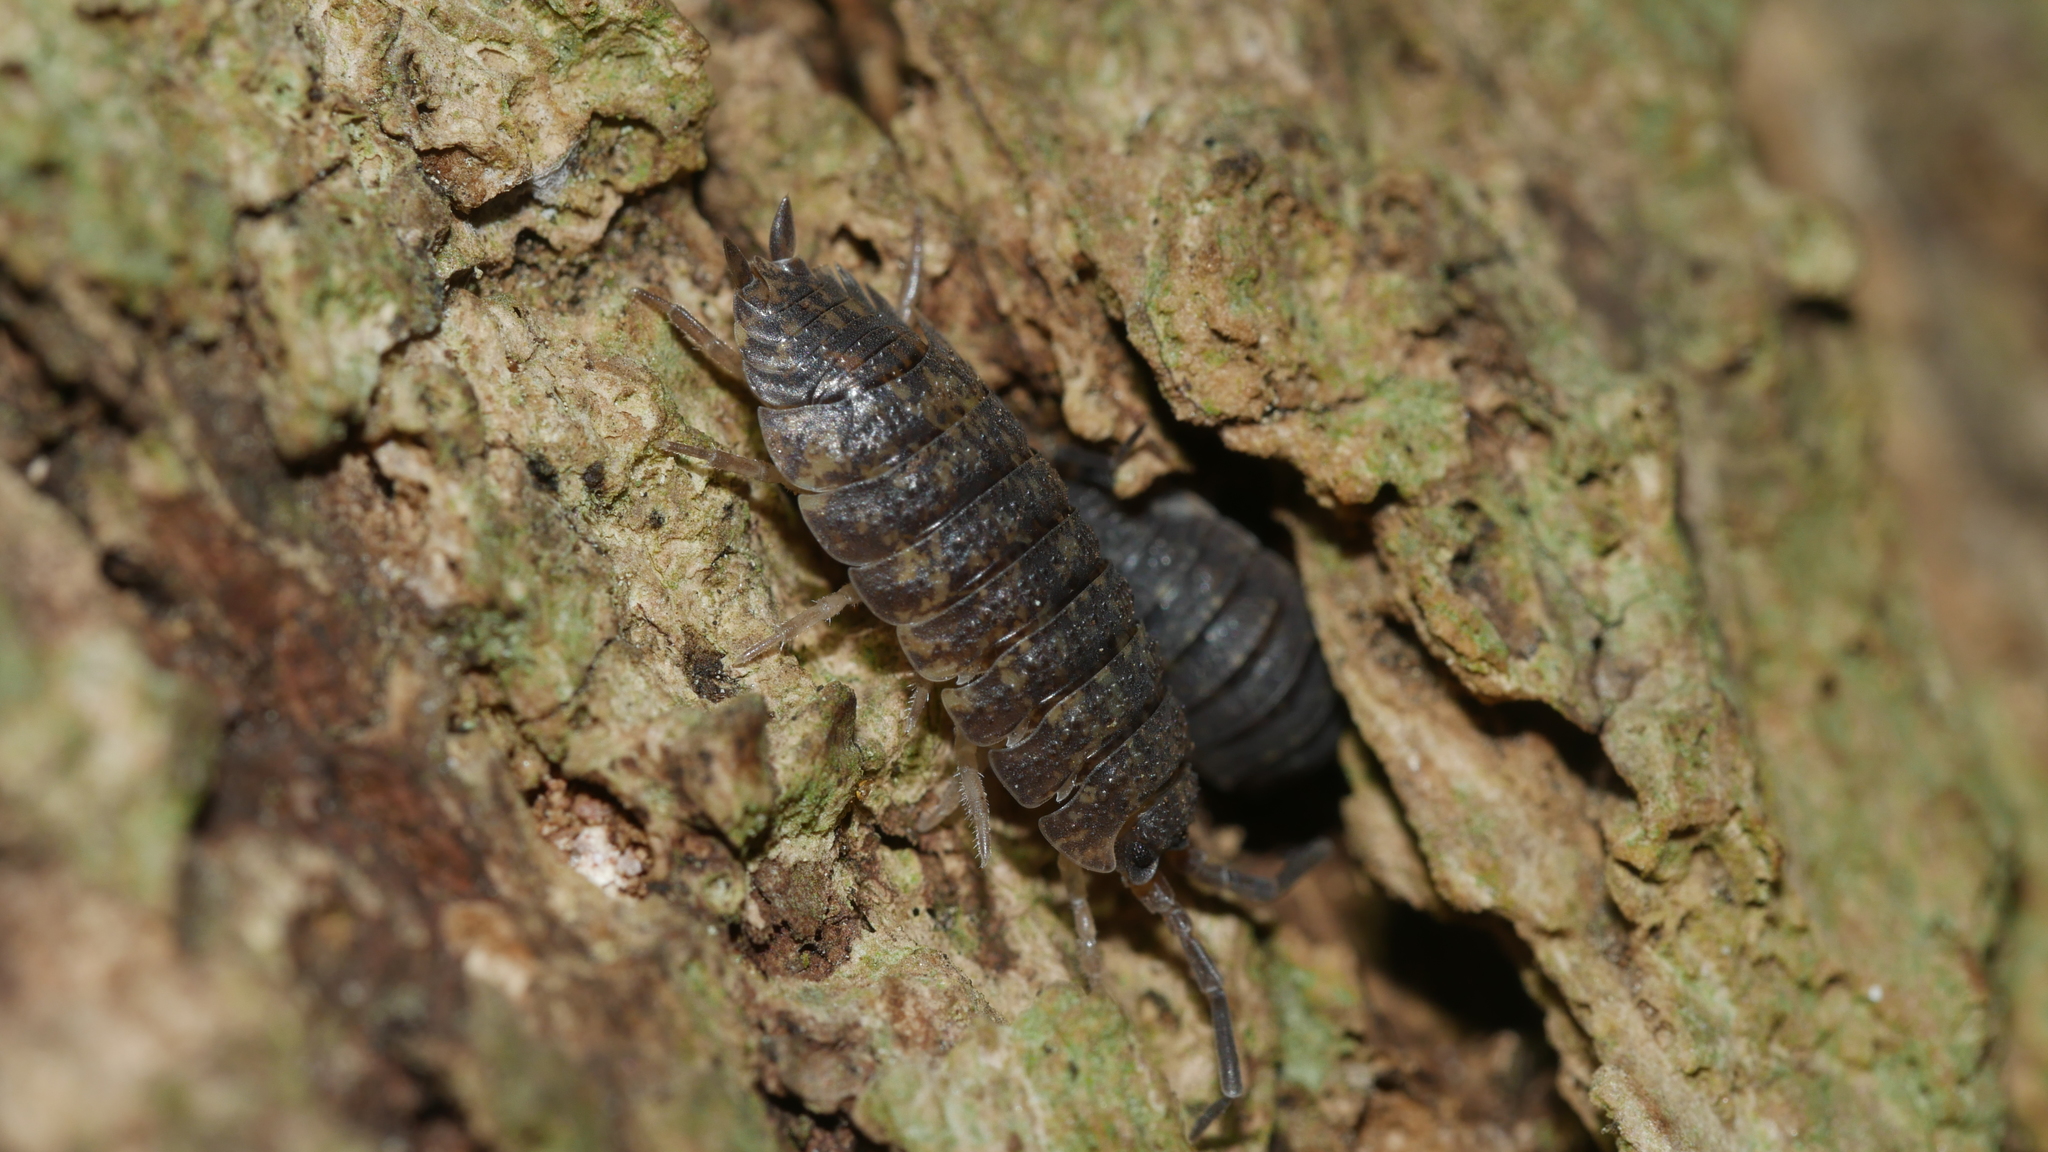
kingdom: Animalia
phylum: Arthropoda
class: Malacostraca
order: Isopoda
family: Porcellionidae
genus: Porcellio
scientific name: Porcellio scaber
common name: Common rough woodlouse
